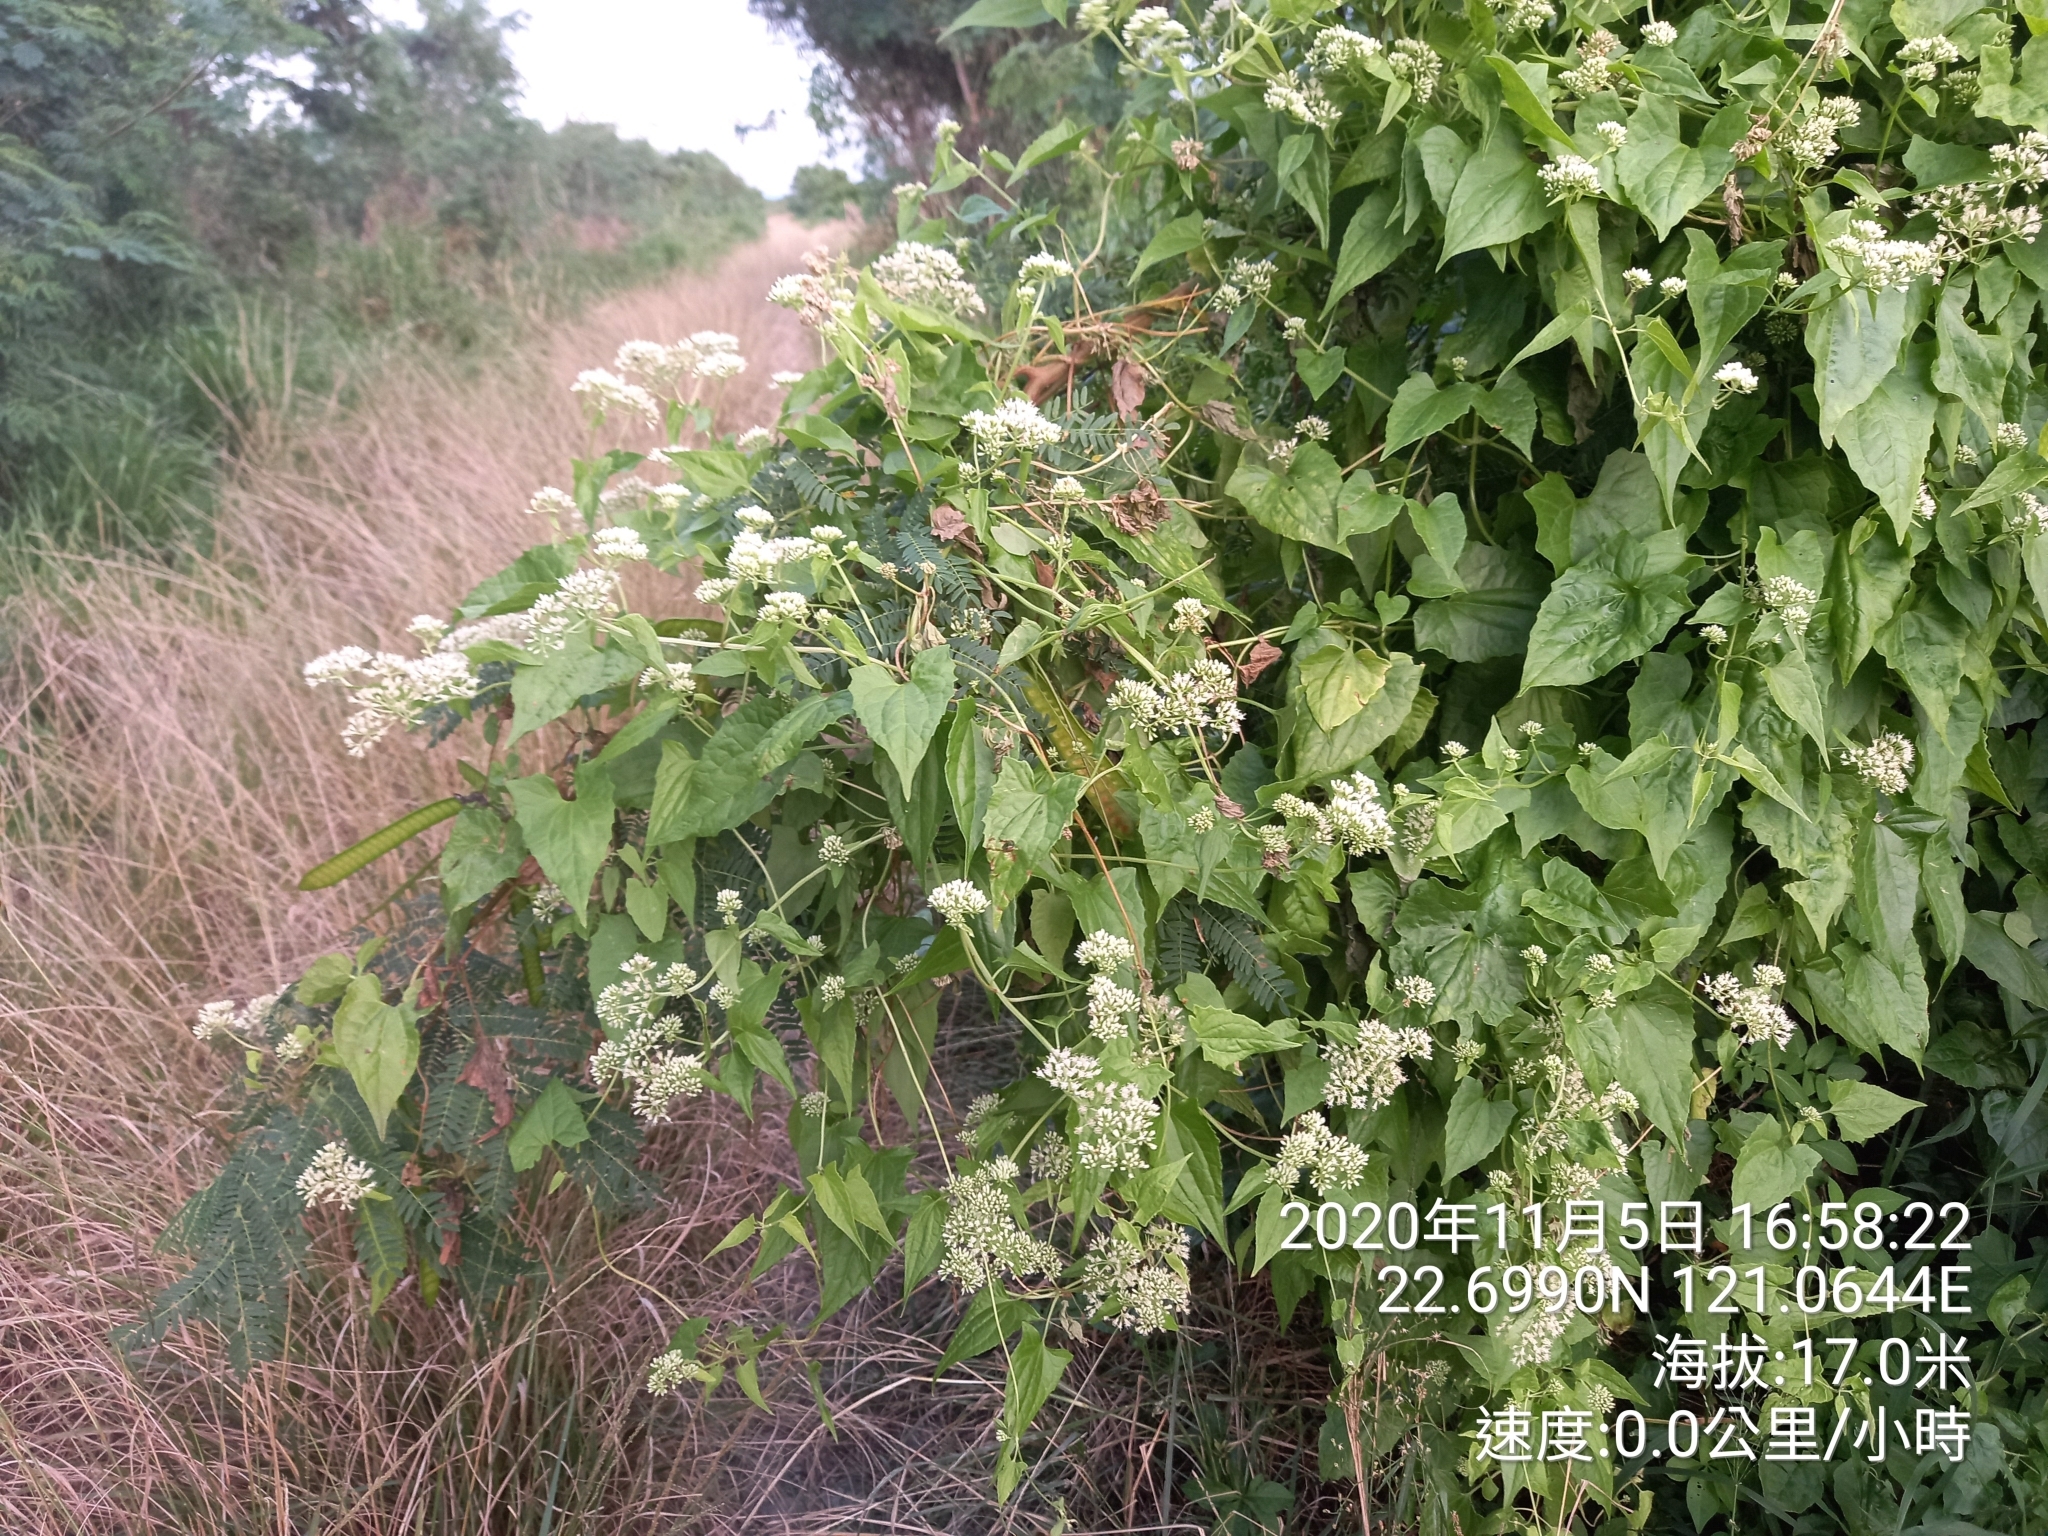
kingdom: Plantae
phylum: Tracheophyta
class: Magnoliopsida
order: Asterales
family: Asteraceae
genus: Mikania
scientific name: Mikania micrantha
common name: Mile-a-minute
